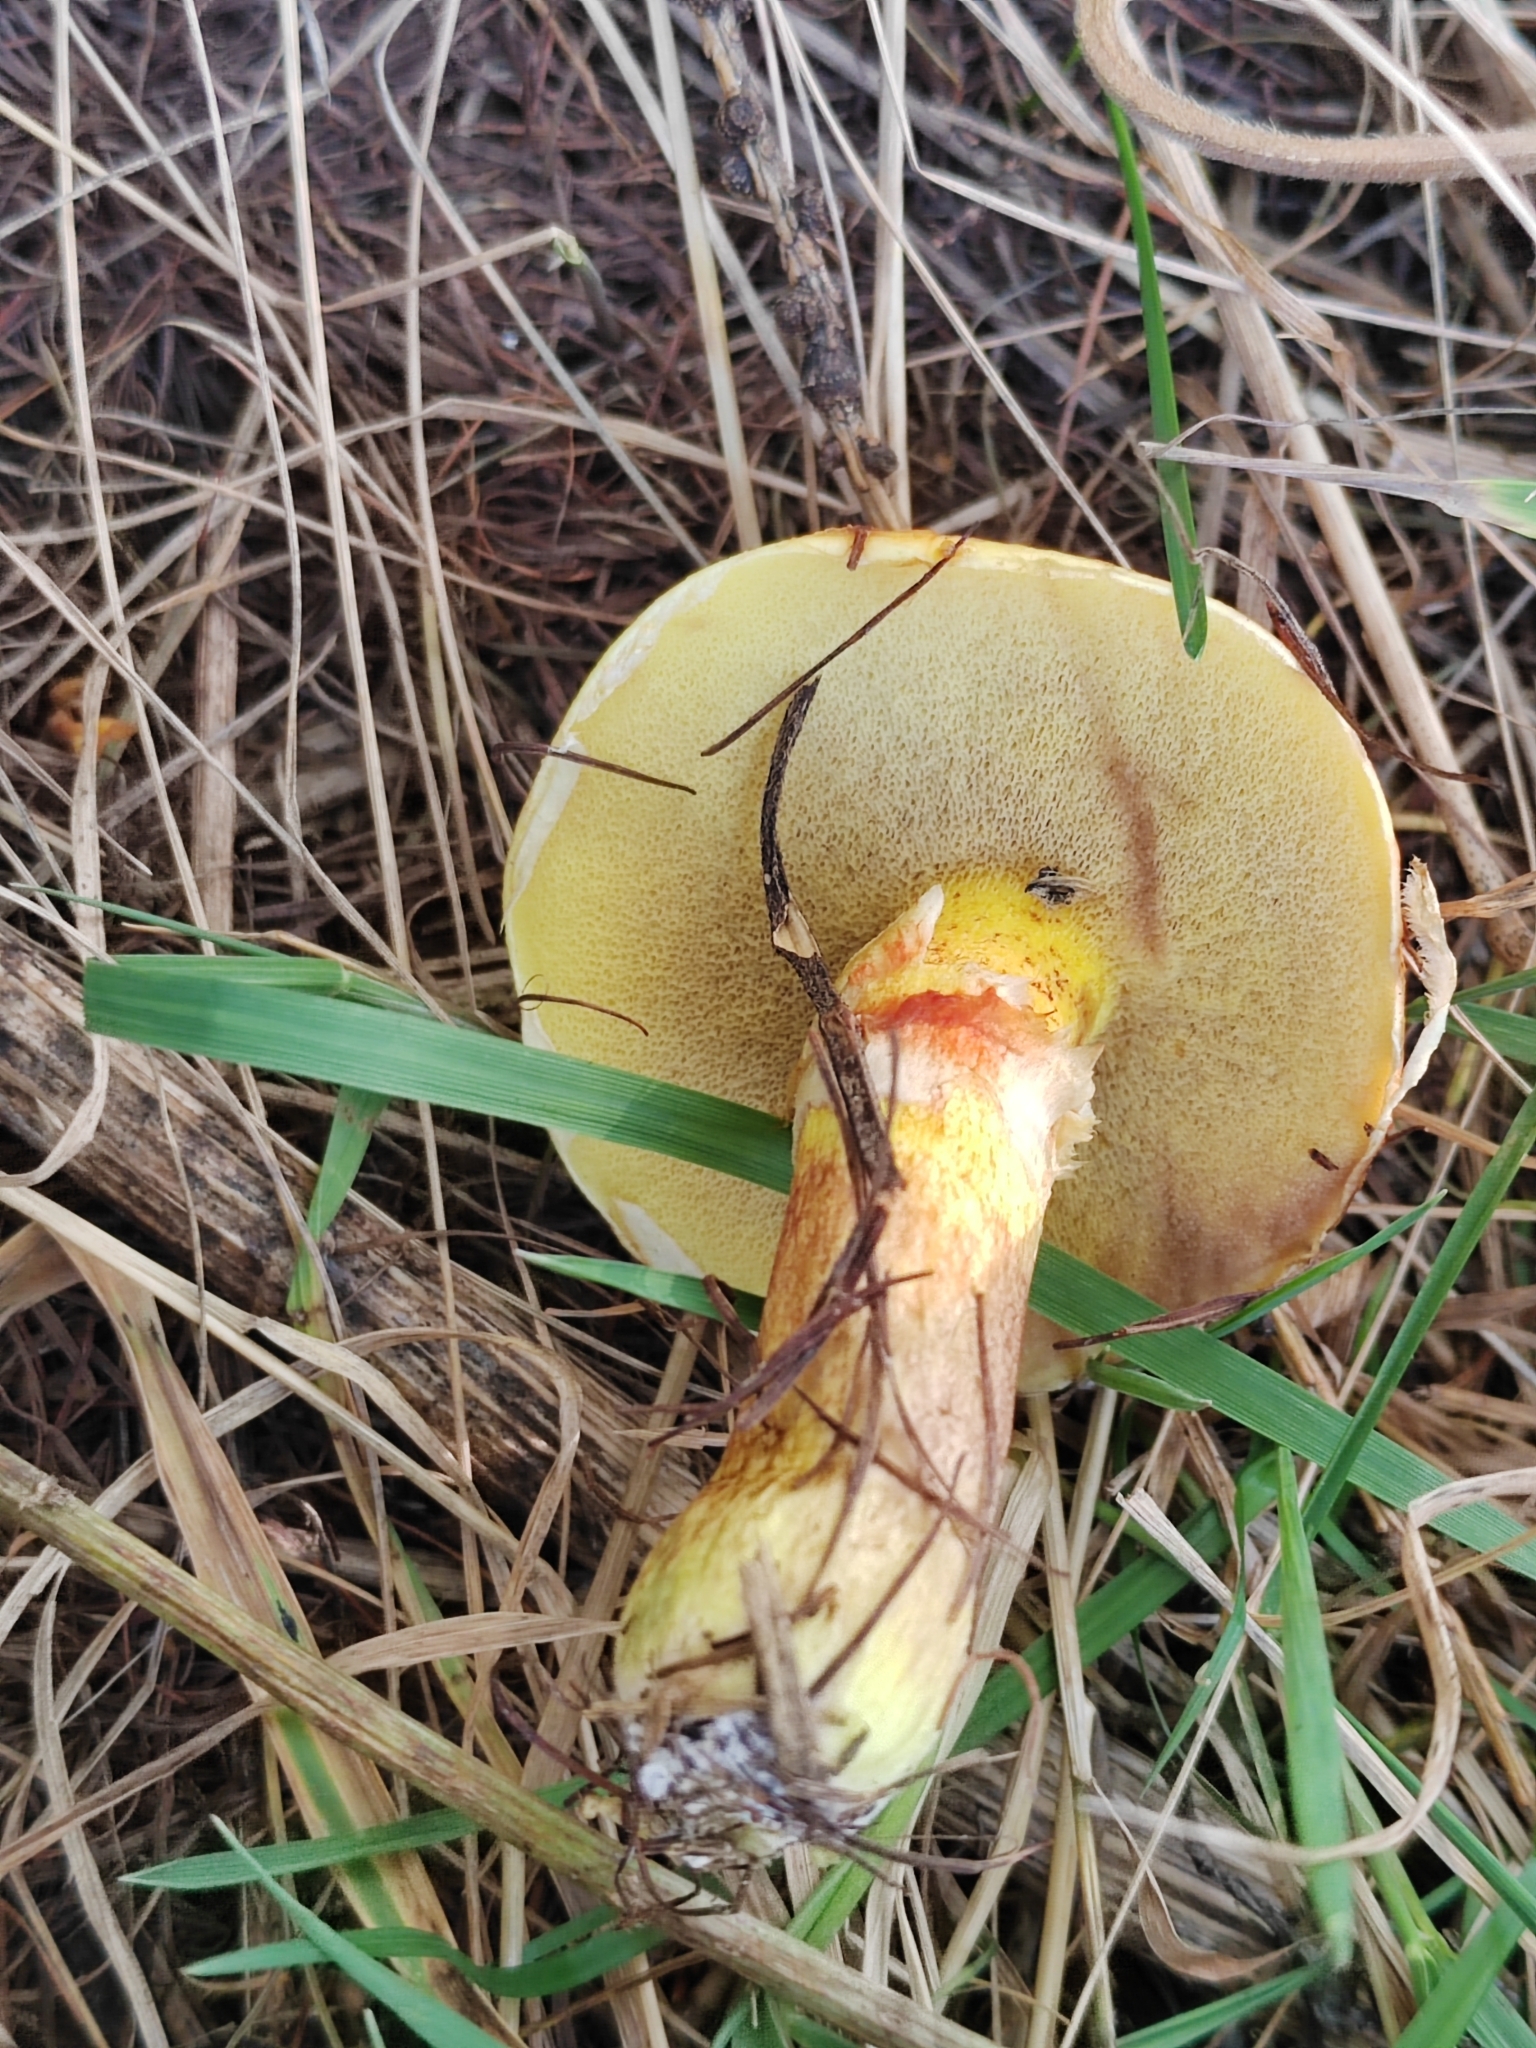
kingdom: Fungi
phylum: Basidiomycota
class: Agaricomycetes
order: Boletales
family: Suillaceae
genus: Suillus
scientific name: Suillus grevillei
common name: Larch bolete
